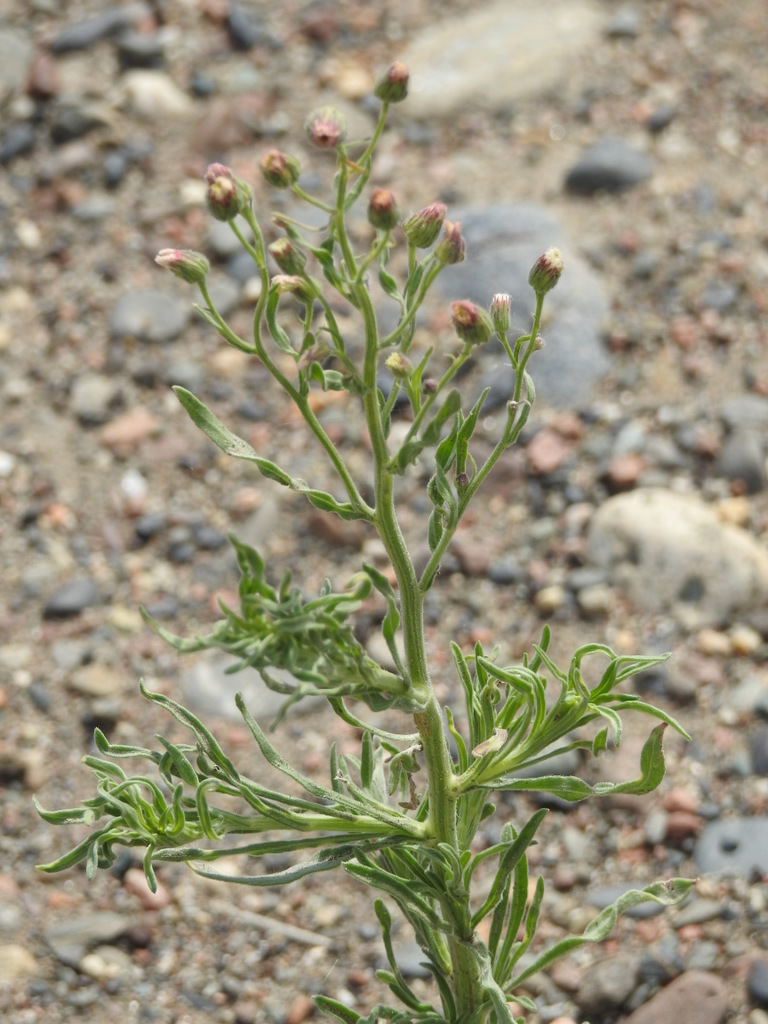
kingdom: Plantae
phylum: Tracheophyta
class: Magnoliopsida
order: Asterales
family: Asteraceae
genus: Erigeron
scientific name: Erigeron bonariensis
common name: Argentine fleabane
